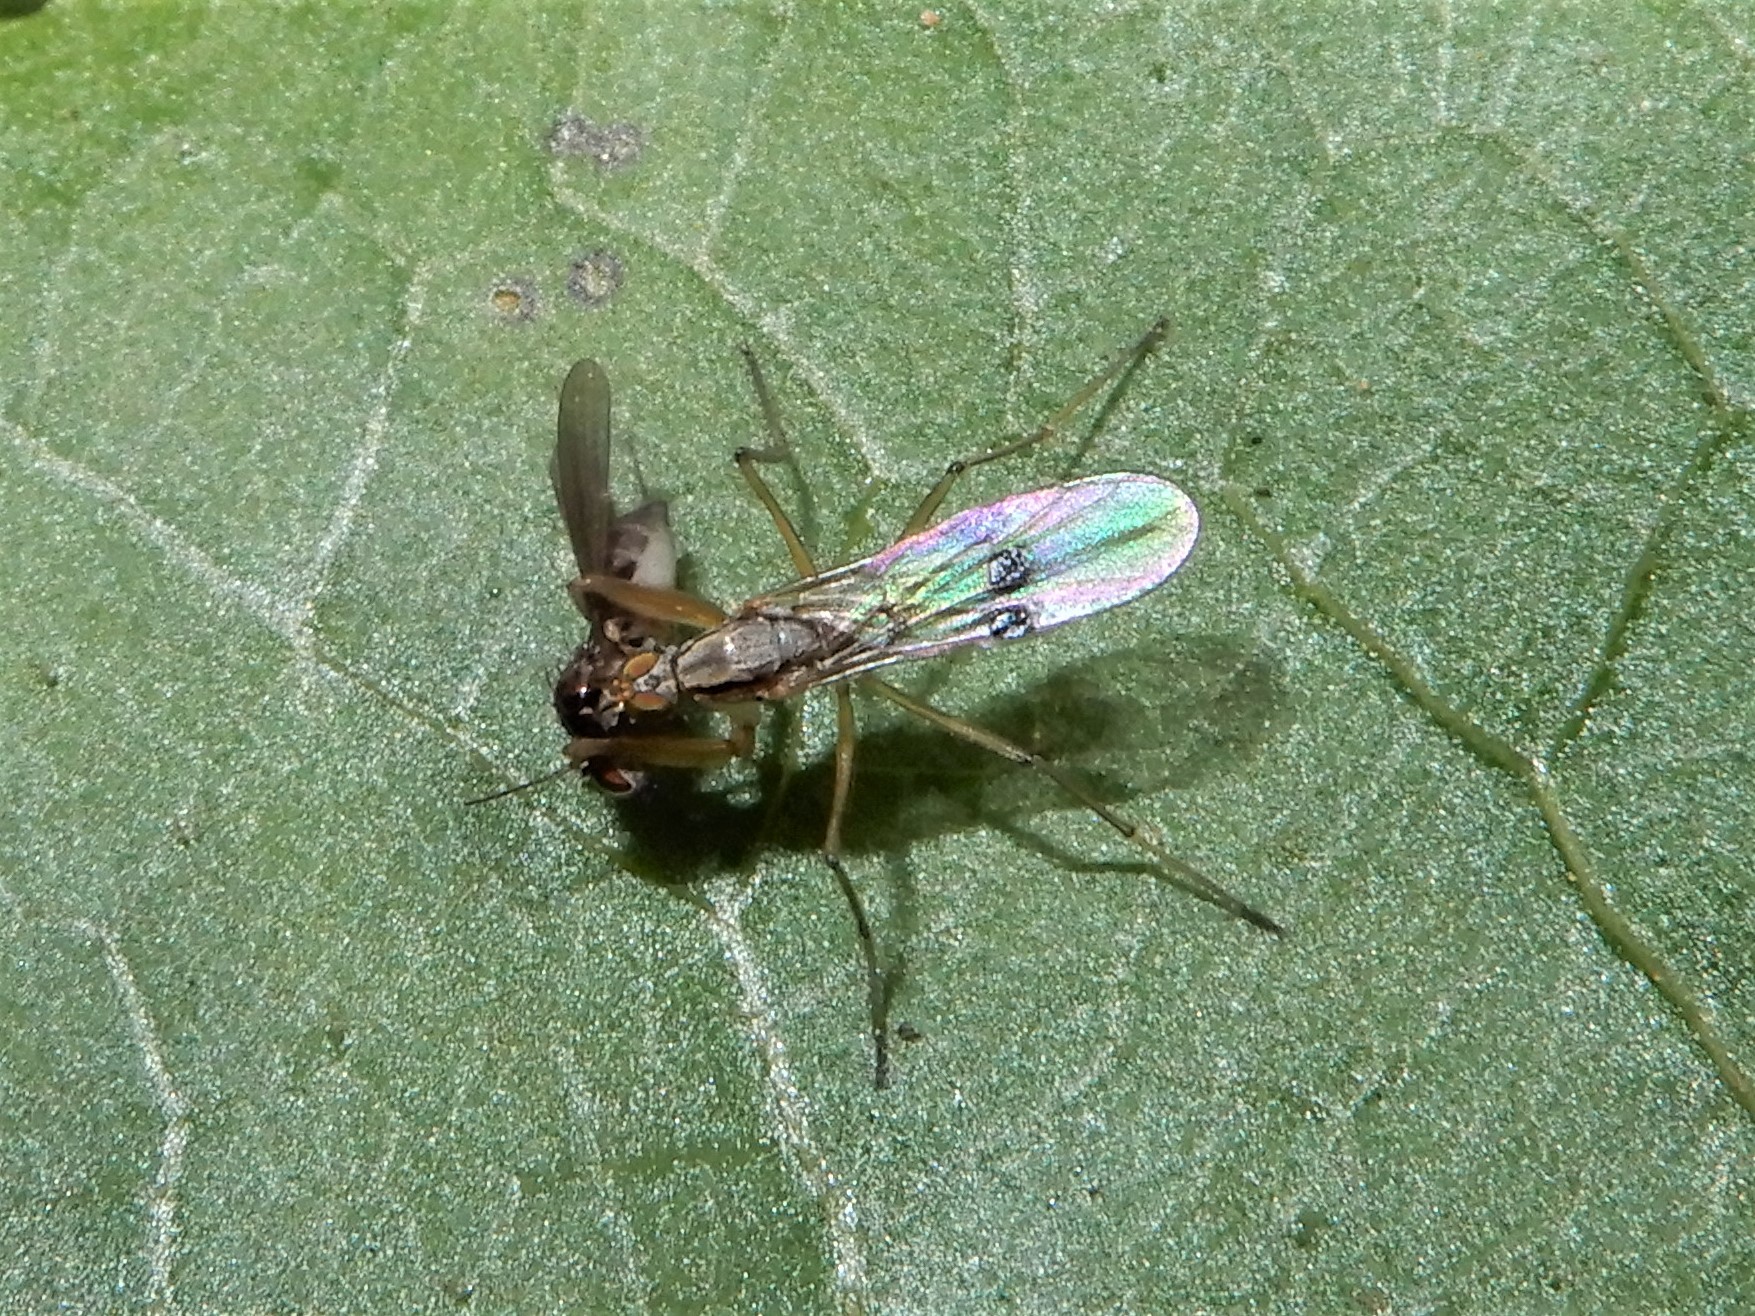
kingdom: Animalia
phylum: Arthropoda
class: Insecta
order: Diptera
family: Empididae
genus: Chelipoda
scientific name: Chelipoda mirabilis
